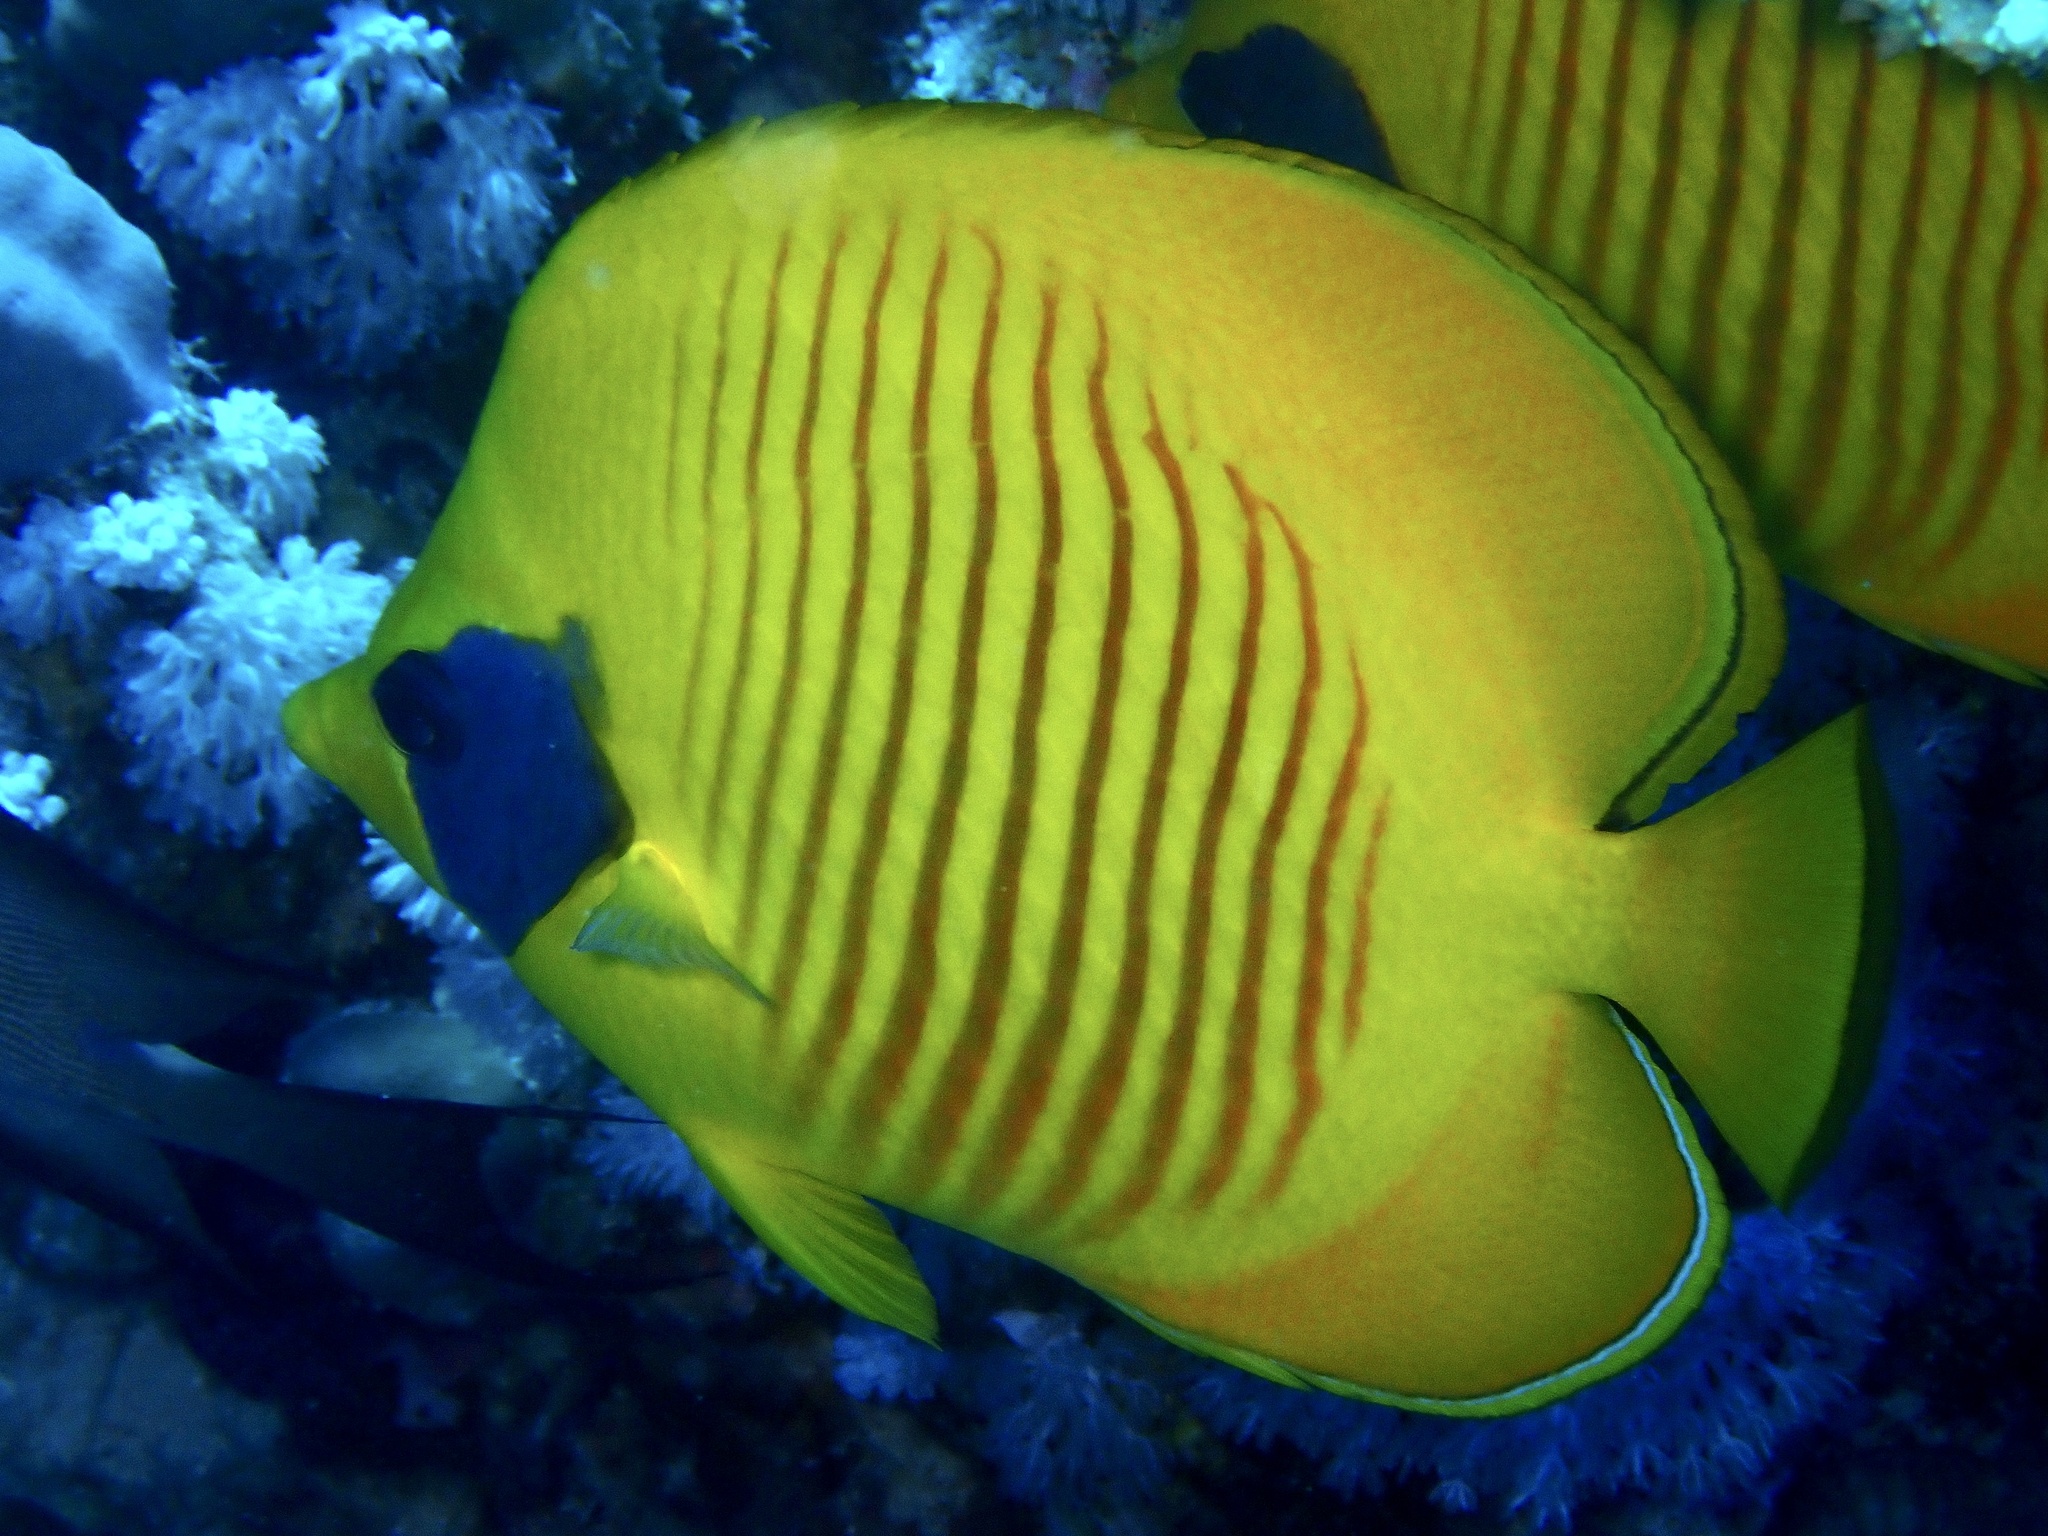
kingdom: Animalia
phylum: Chordata
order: Perciformes
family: Chaetodontidae
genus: Chaetodon
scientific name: Chaetodon semilarvatus
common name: Golden butterflyfish
